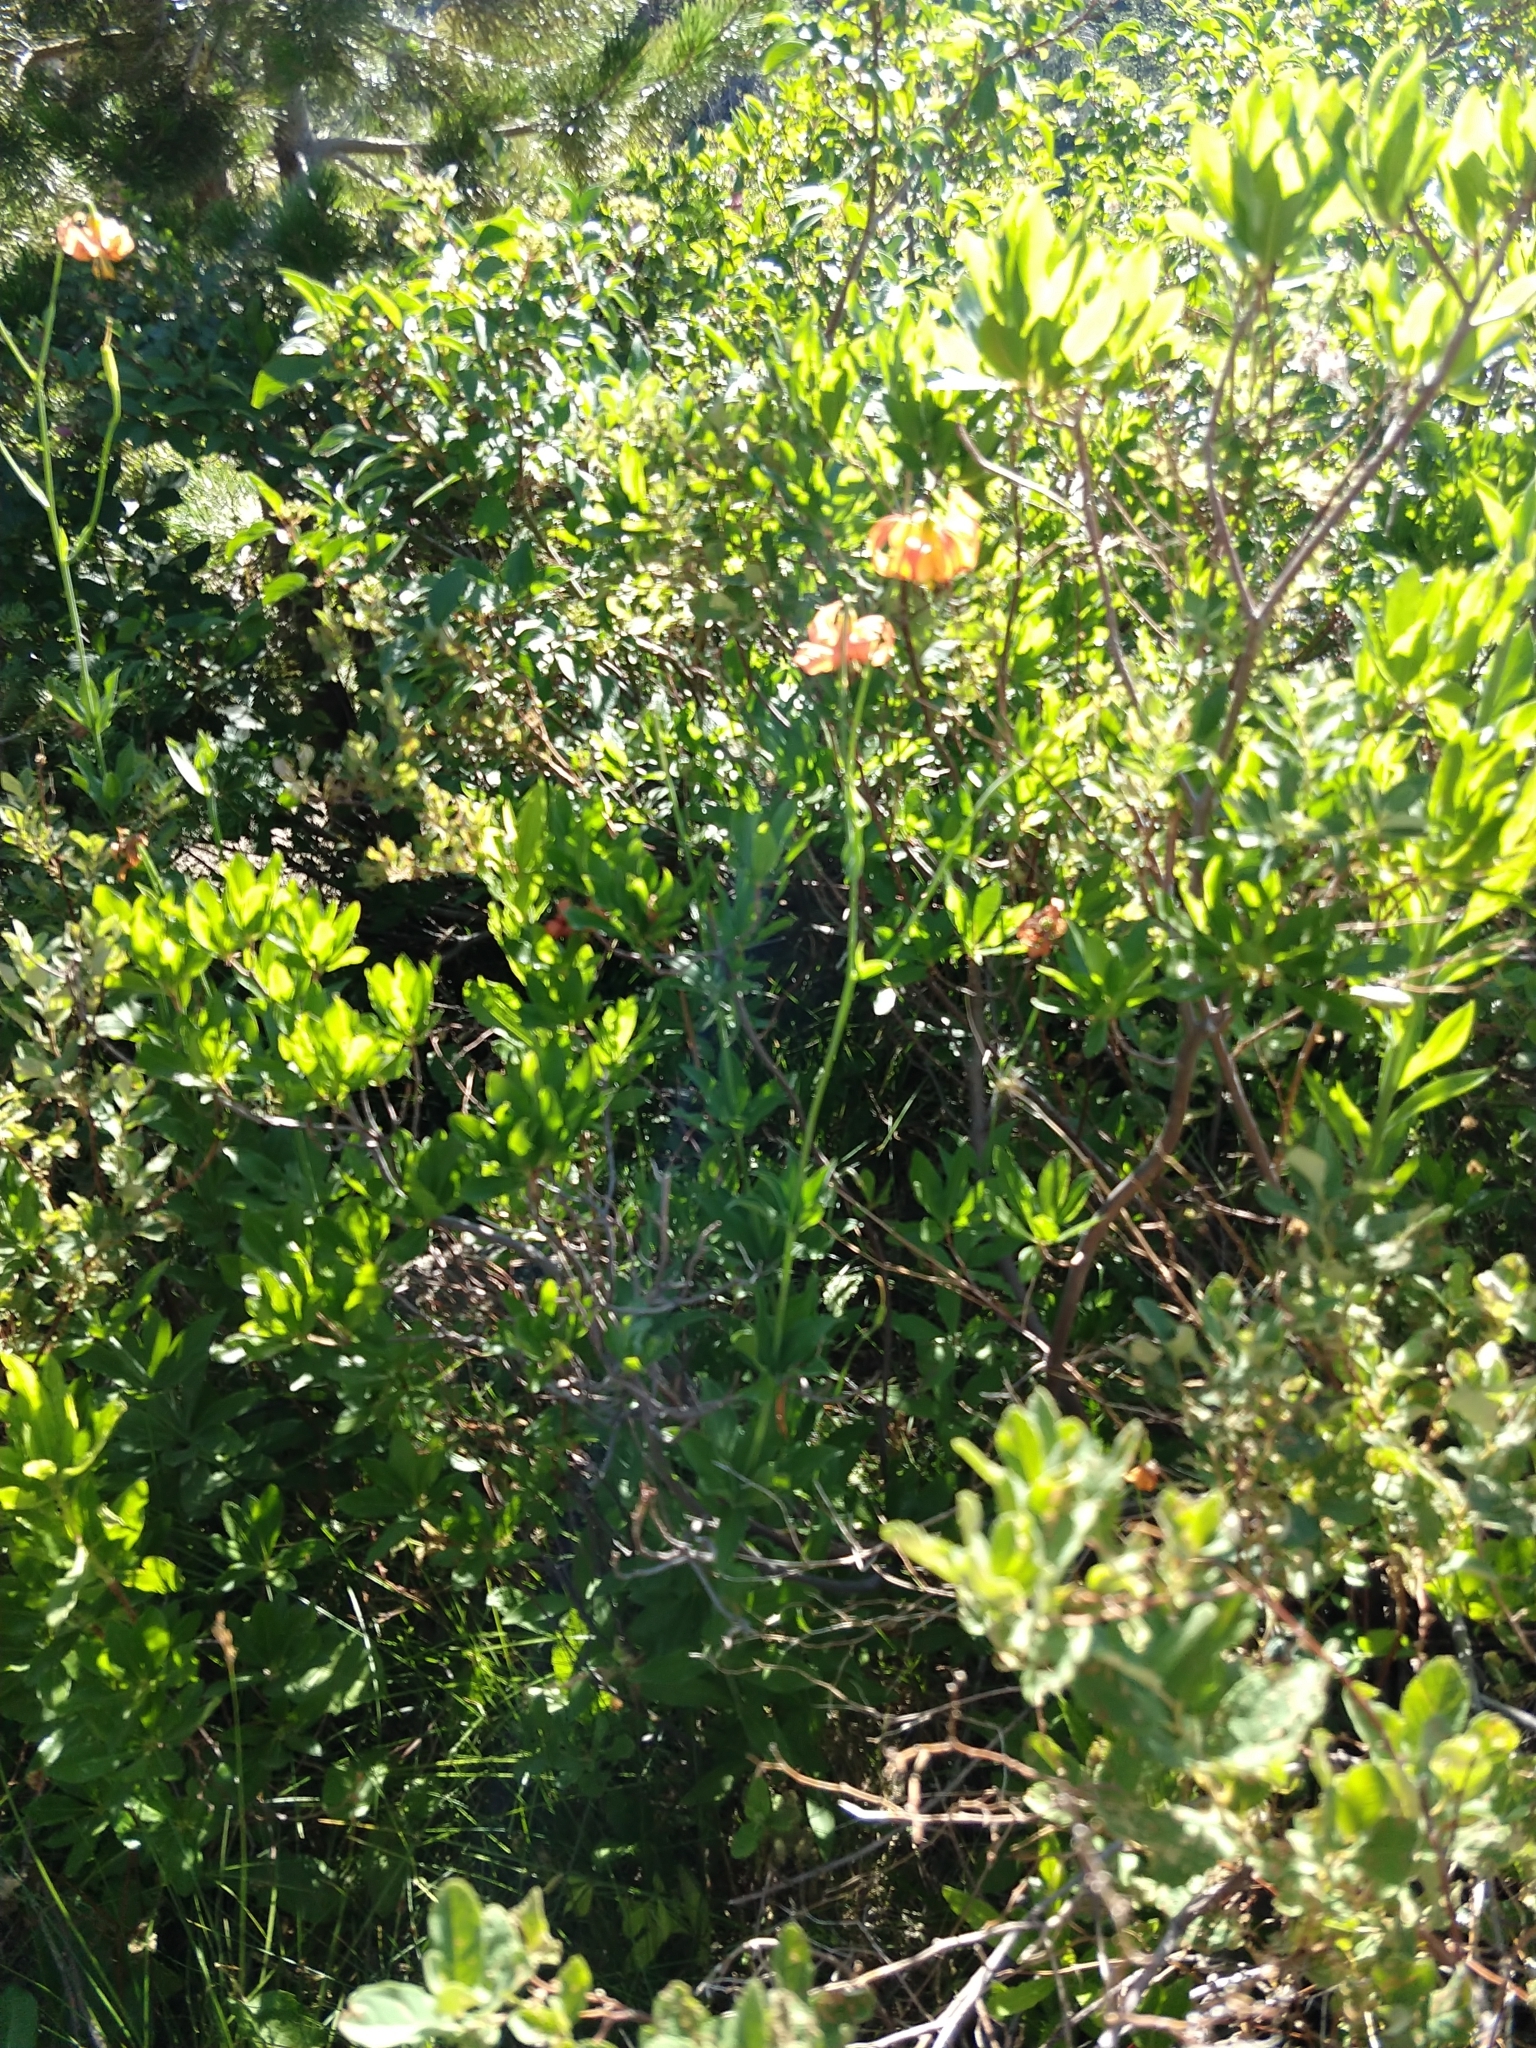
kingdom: Plantae
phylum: Tracheophyta
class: Liliopsida
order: Liliales
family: Liliaceae
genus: Lilium
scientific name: Lilium pardalinum
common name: Panther lily
